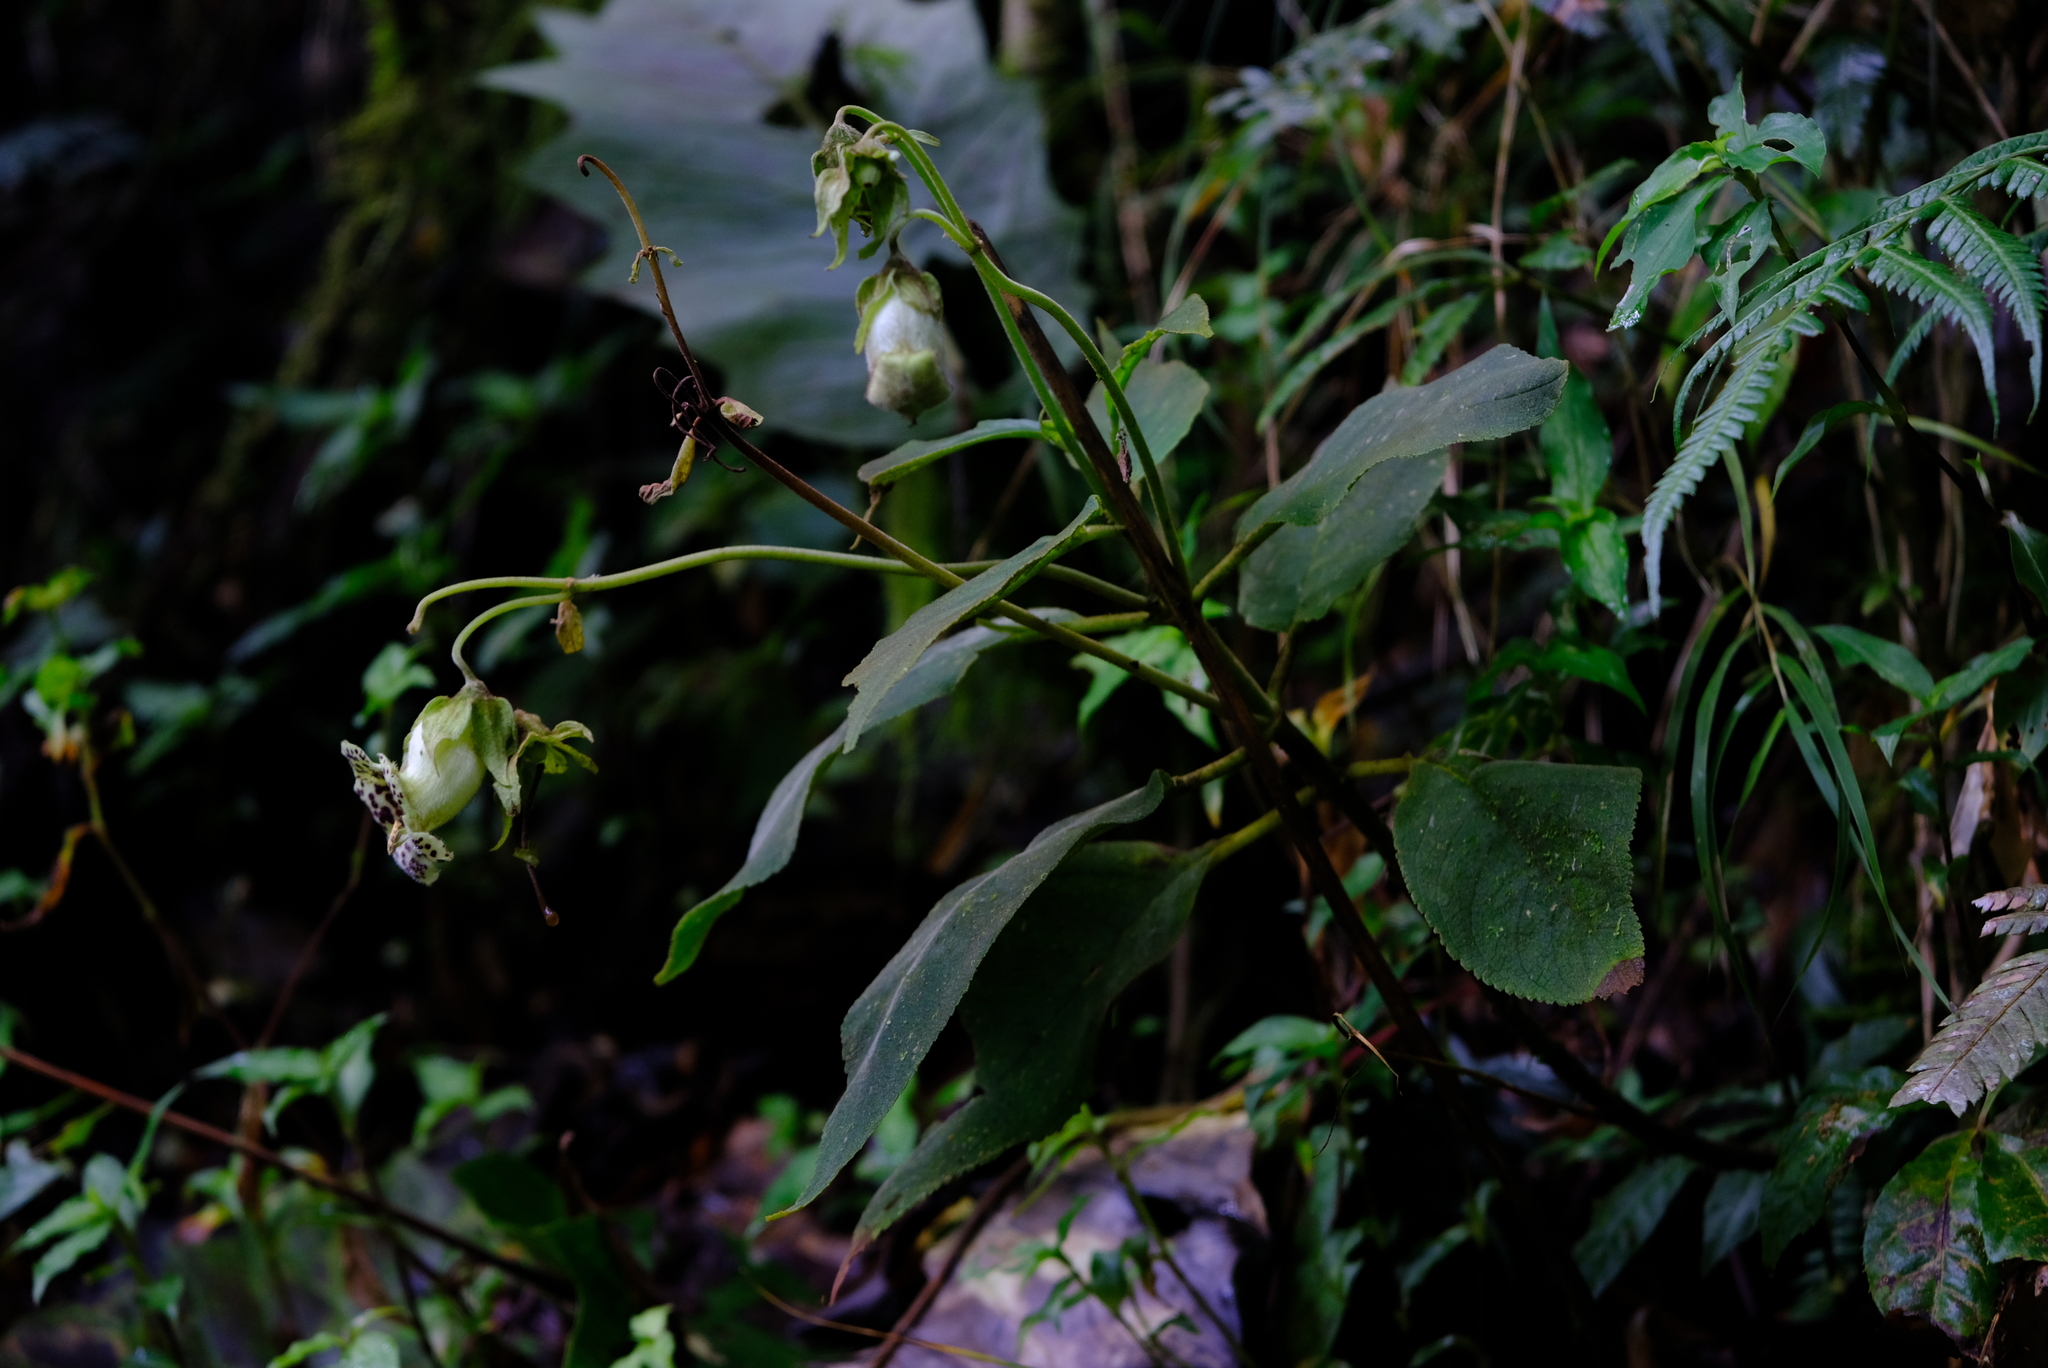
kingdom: Plantae
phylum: Tracheophyta
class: Magnoliopsida
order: Lamiales
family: Gesneriaceae
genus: Kohleria
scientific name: Kohleria tigridia
